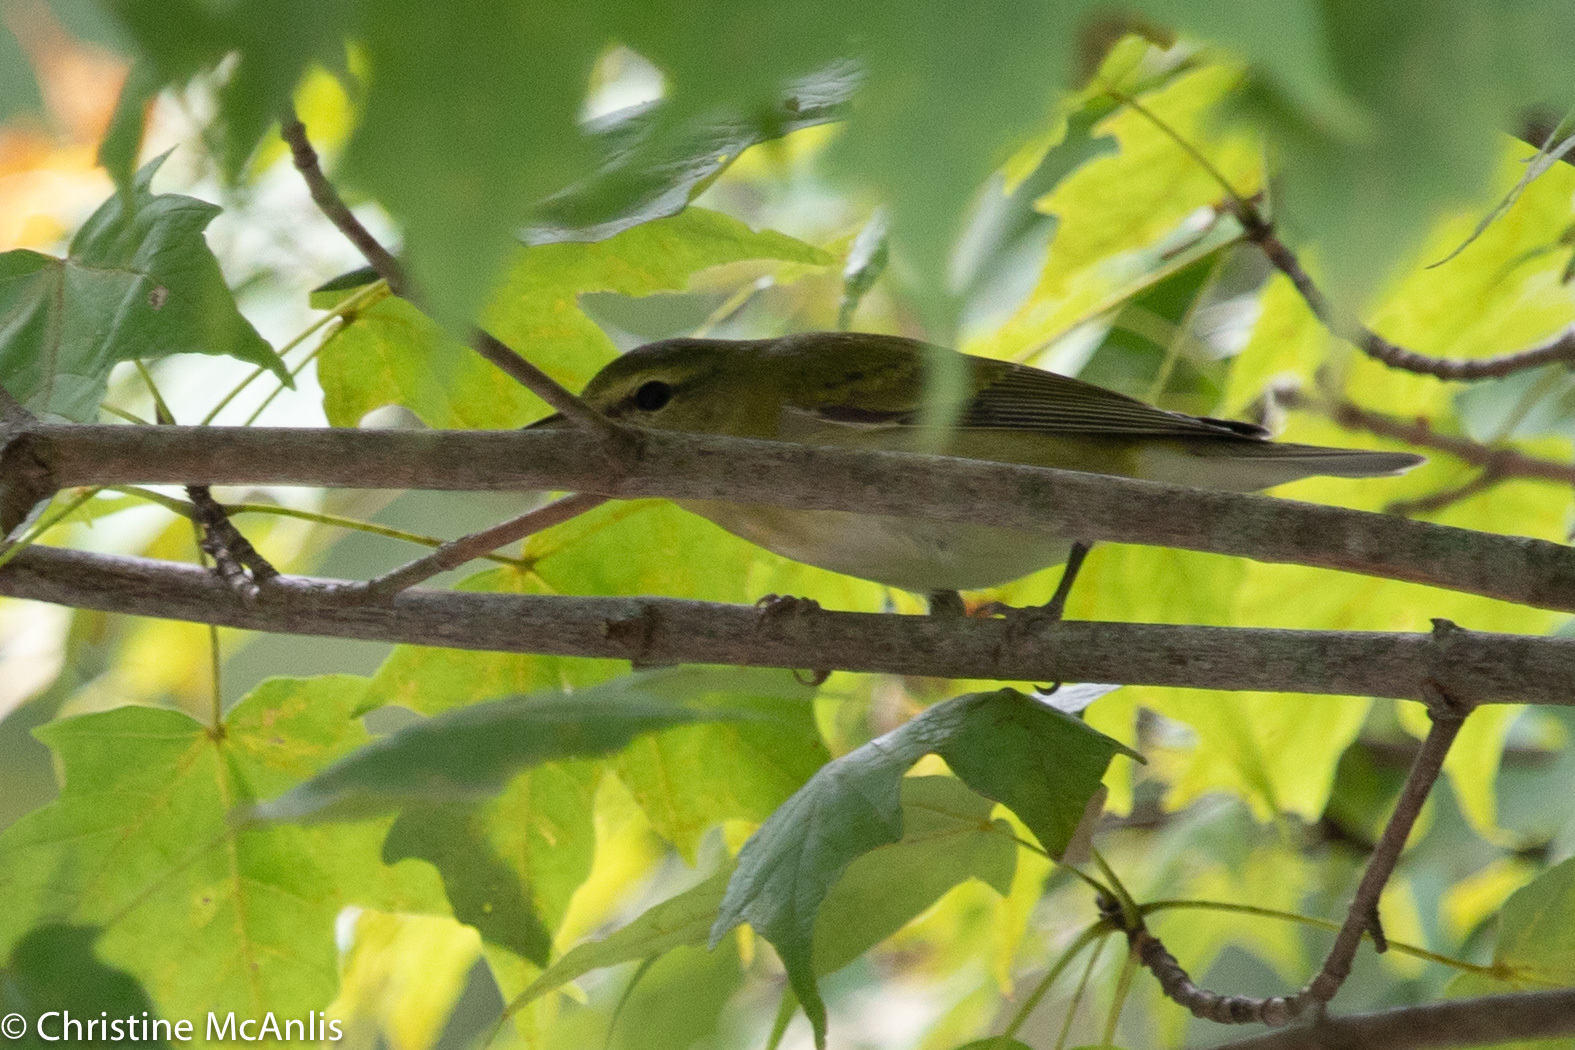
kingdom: Animalia
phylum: Chordata
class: Aves
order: Passeriformes
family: Parulidae
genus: Leiothlypis
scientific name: Leiothlypis peregrina
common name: Tennessee warbler
